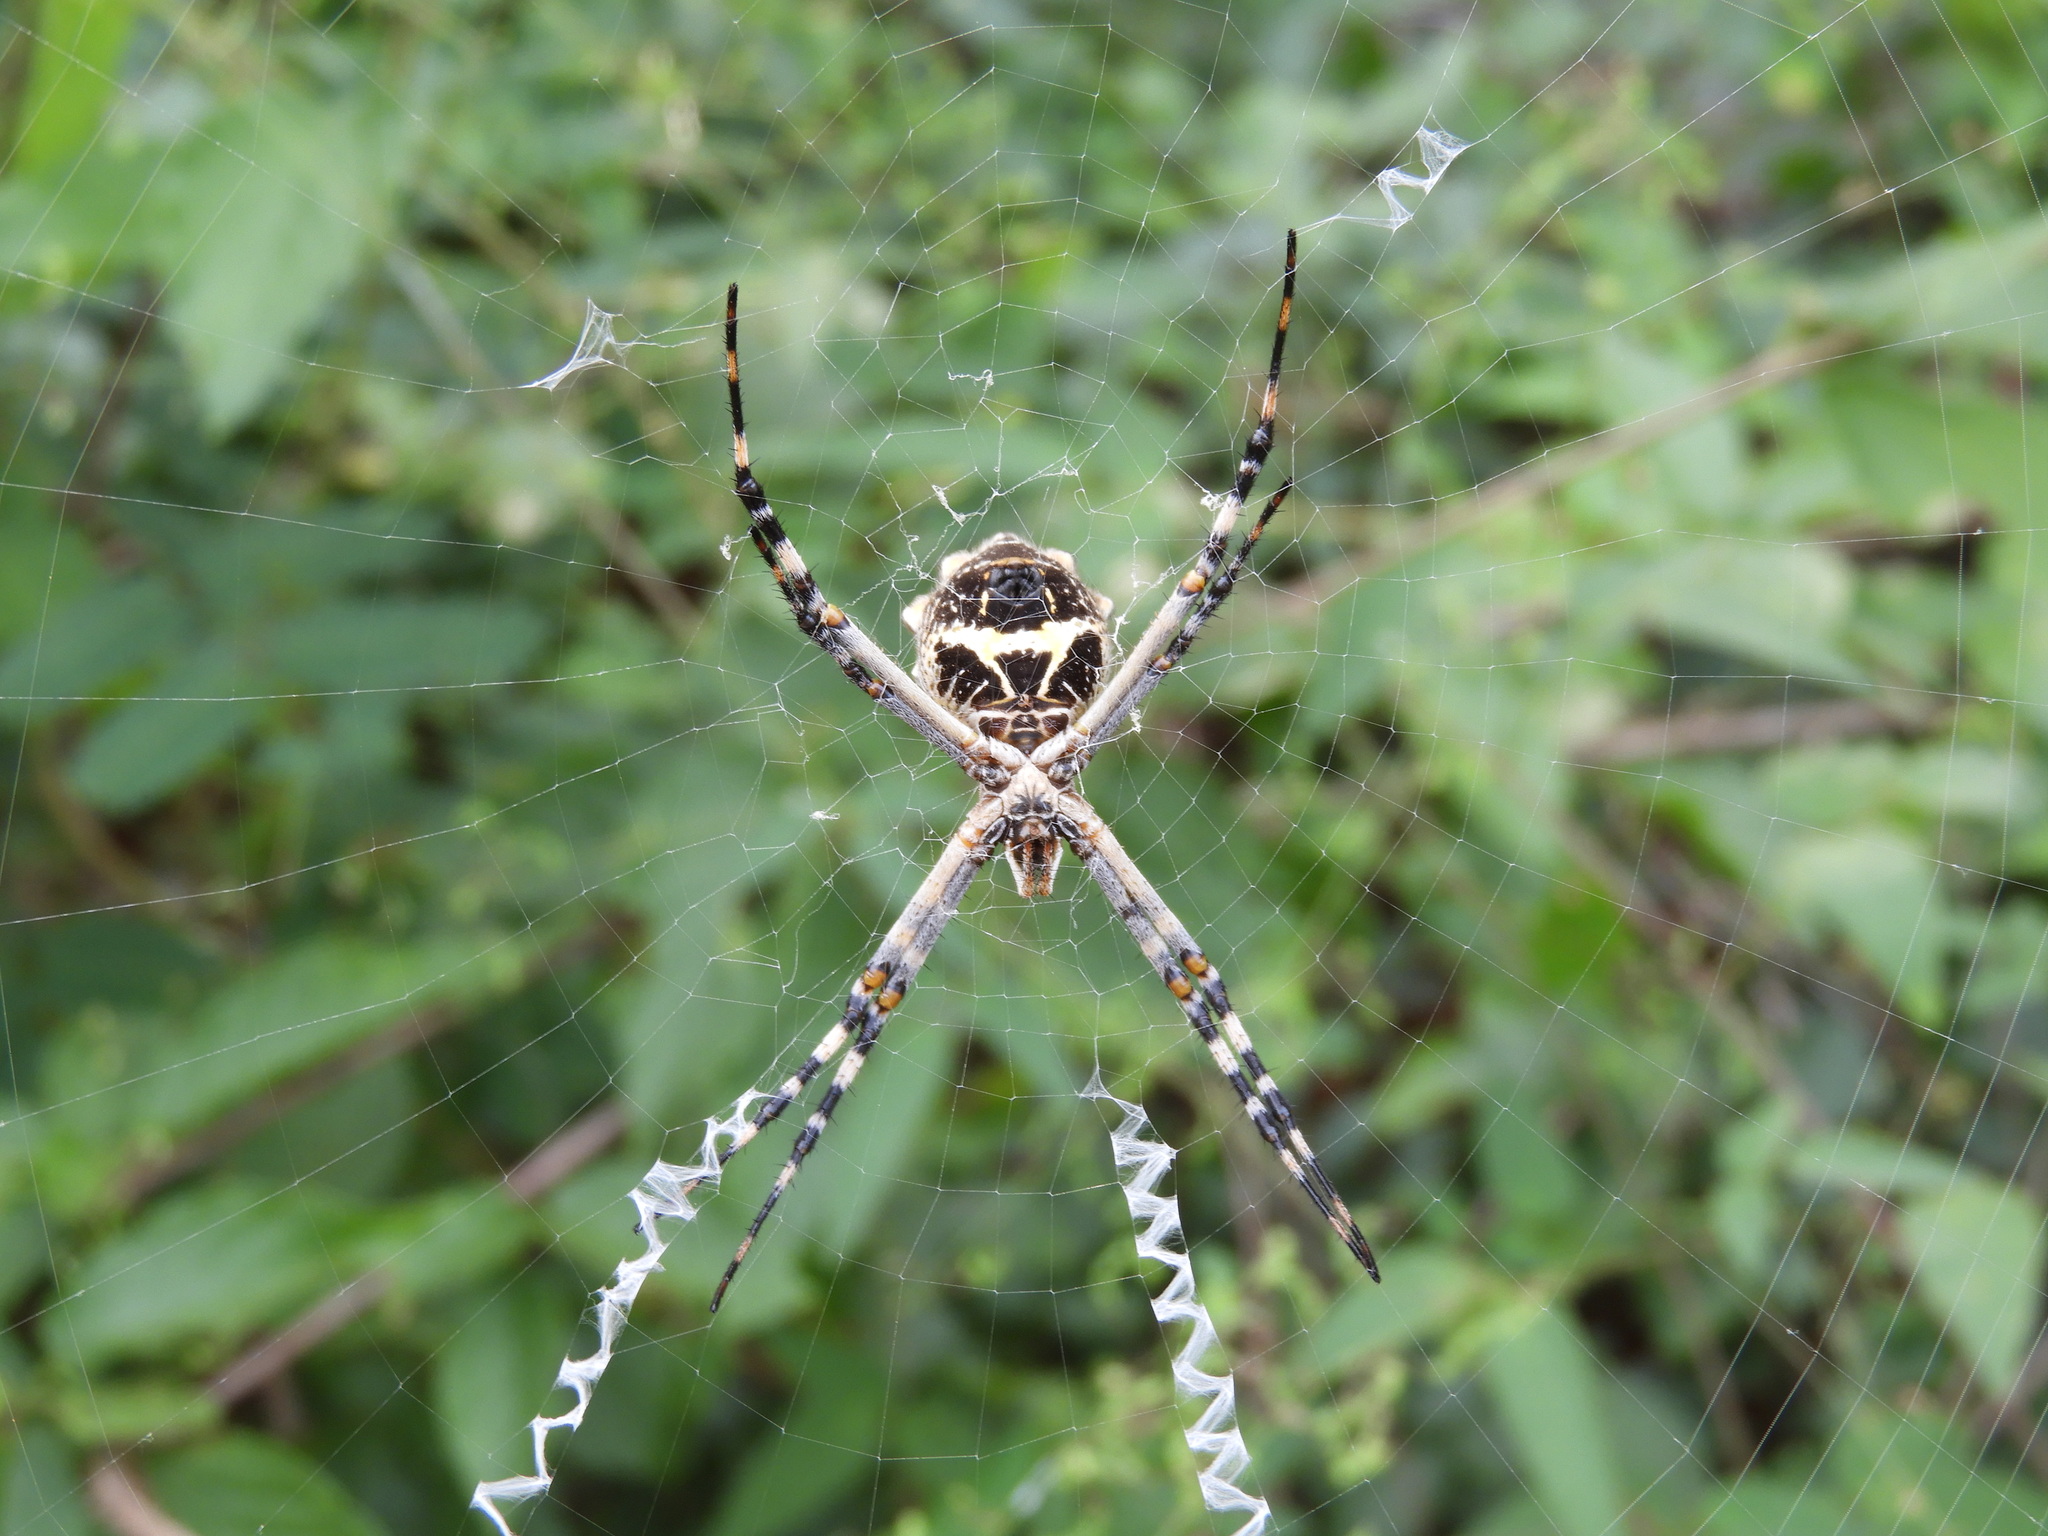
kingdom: Animalia
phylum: Arthropoda
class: Arachnida
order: Araneae
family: Araneidae
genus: Argiope
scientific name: Argiope argentata
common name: Orb weavers
